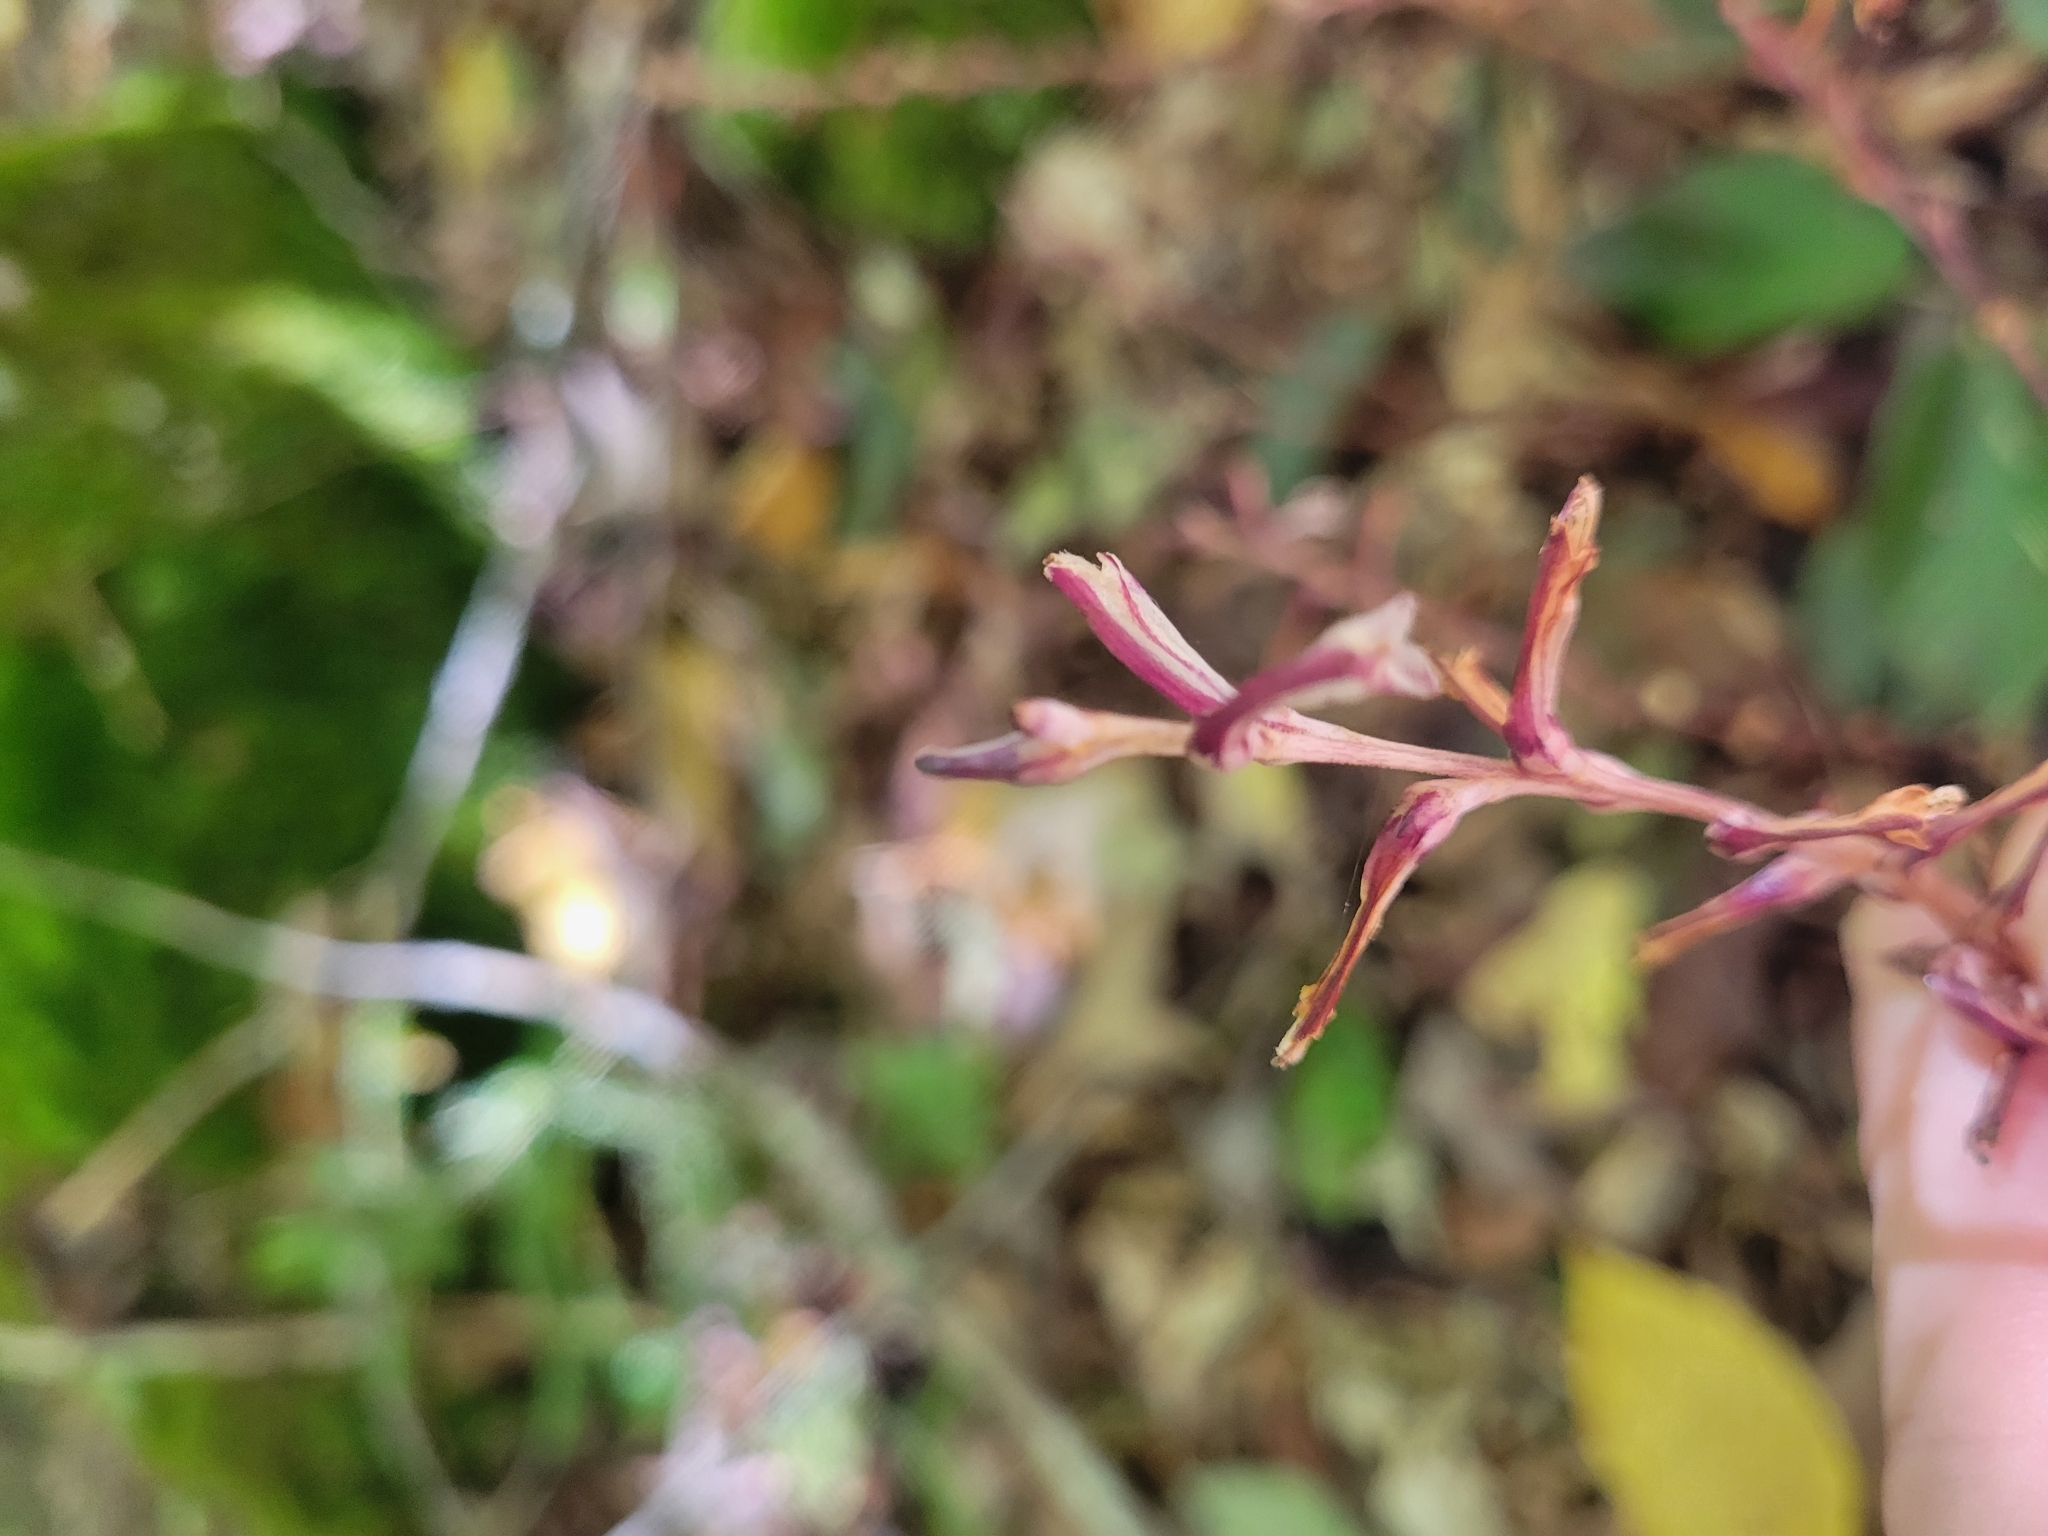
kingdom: Plantae
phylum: Tracheophyta
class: Magnoliopsida
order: Lamiales
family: Orobanchaceae
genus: Epifagus
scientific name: Epifagus virginiana
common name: Beechdrops
